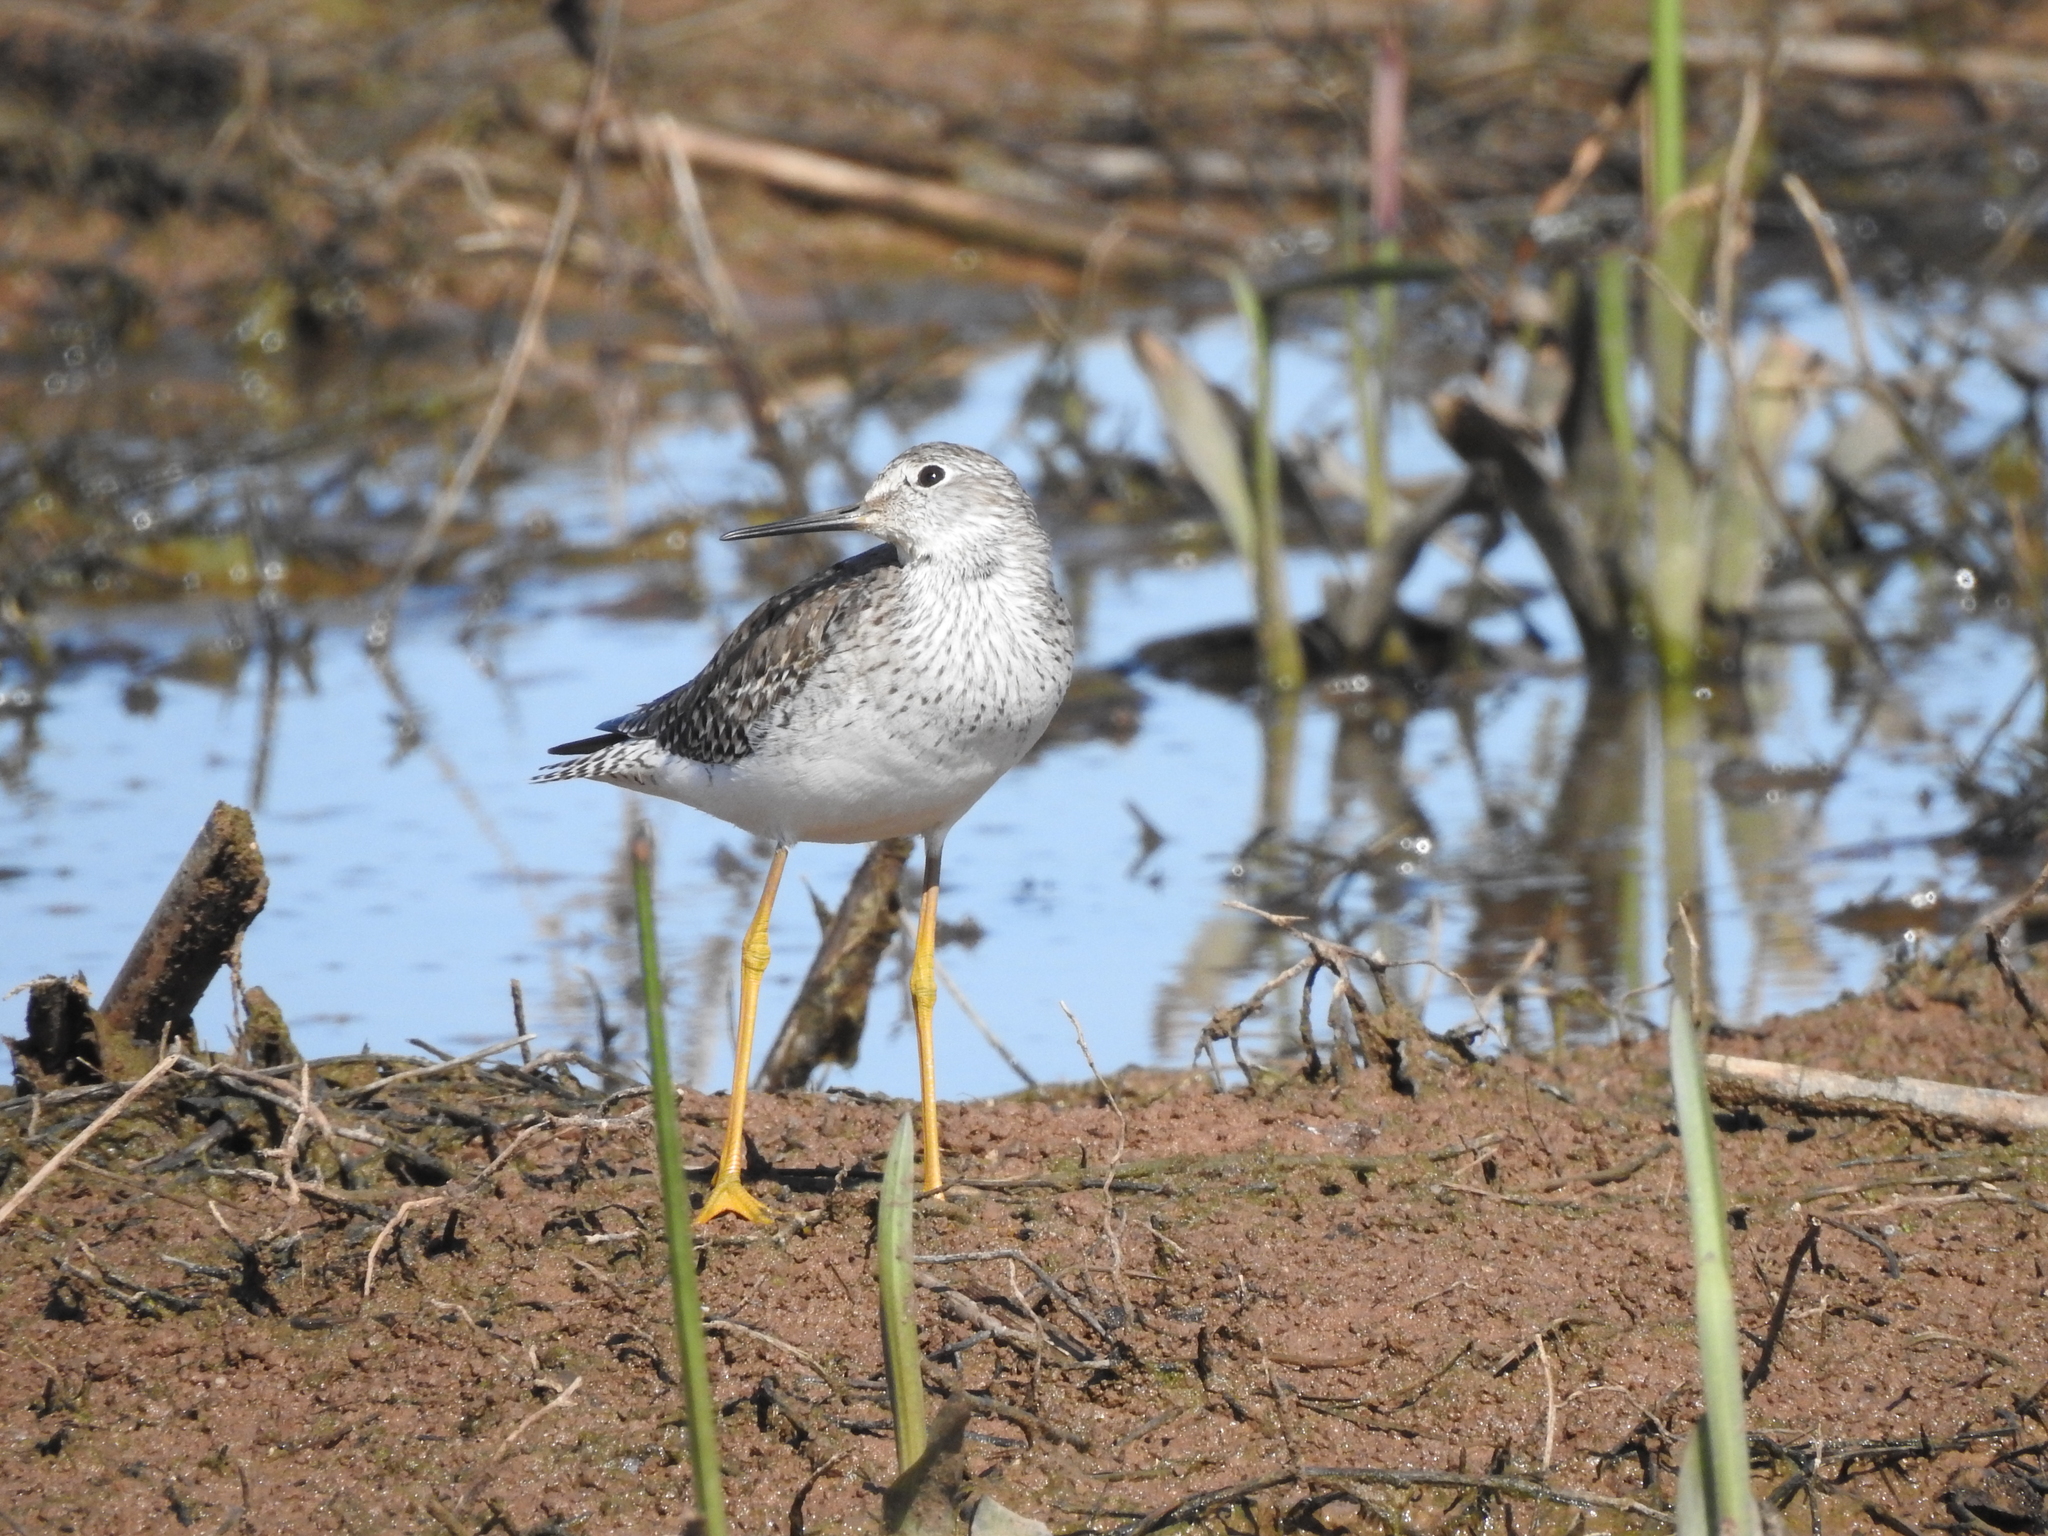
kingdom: Animalia
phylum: Chordata
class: Aves
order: Charadriiformes
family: Scolopacidae
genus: Tringa
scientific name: Tringa flavipes
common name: Lesser yellowlegs
